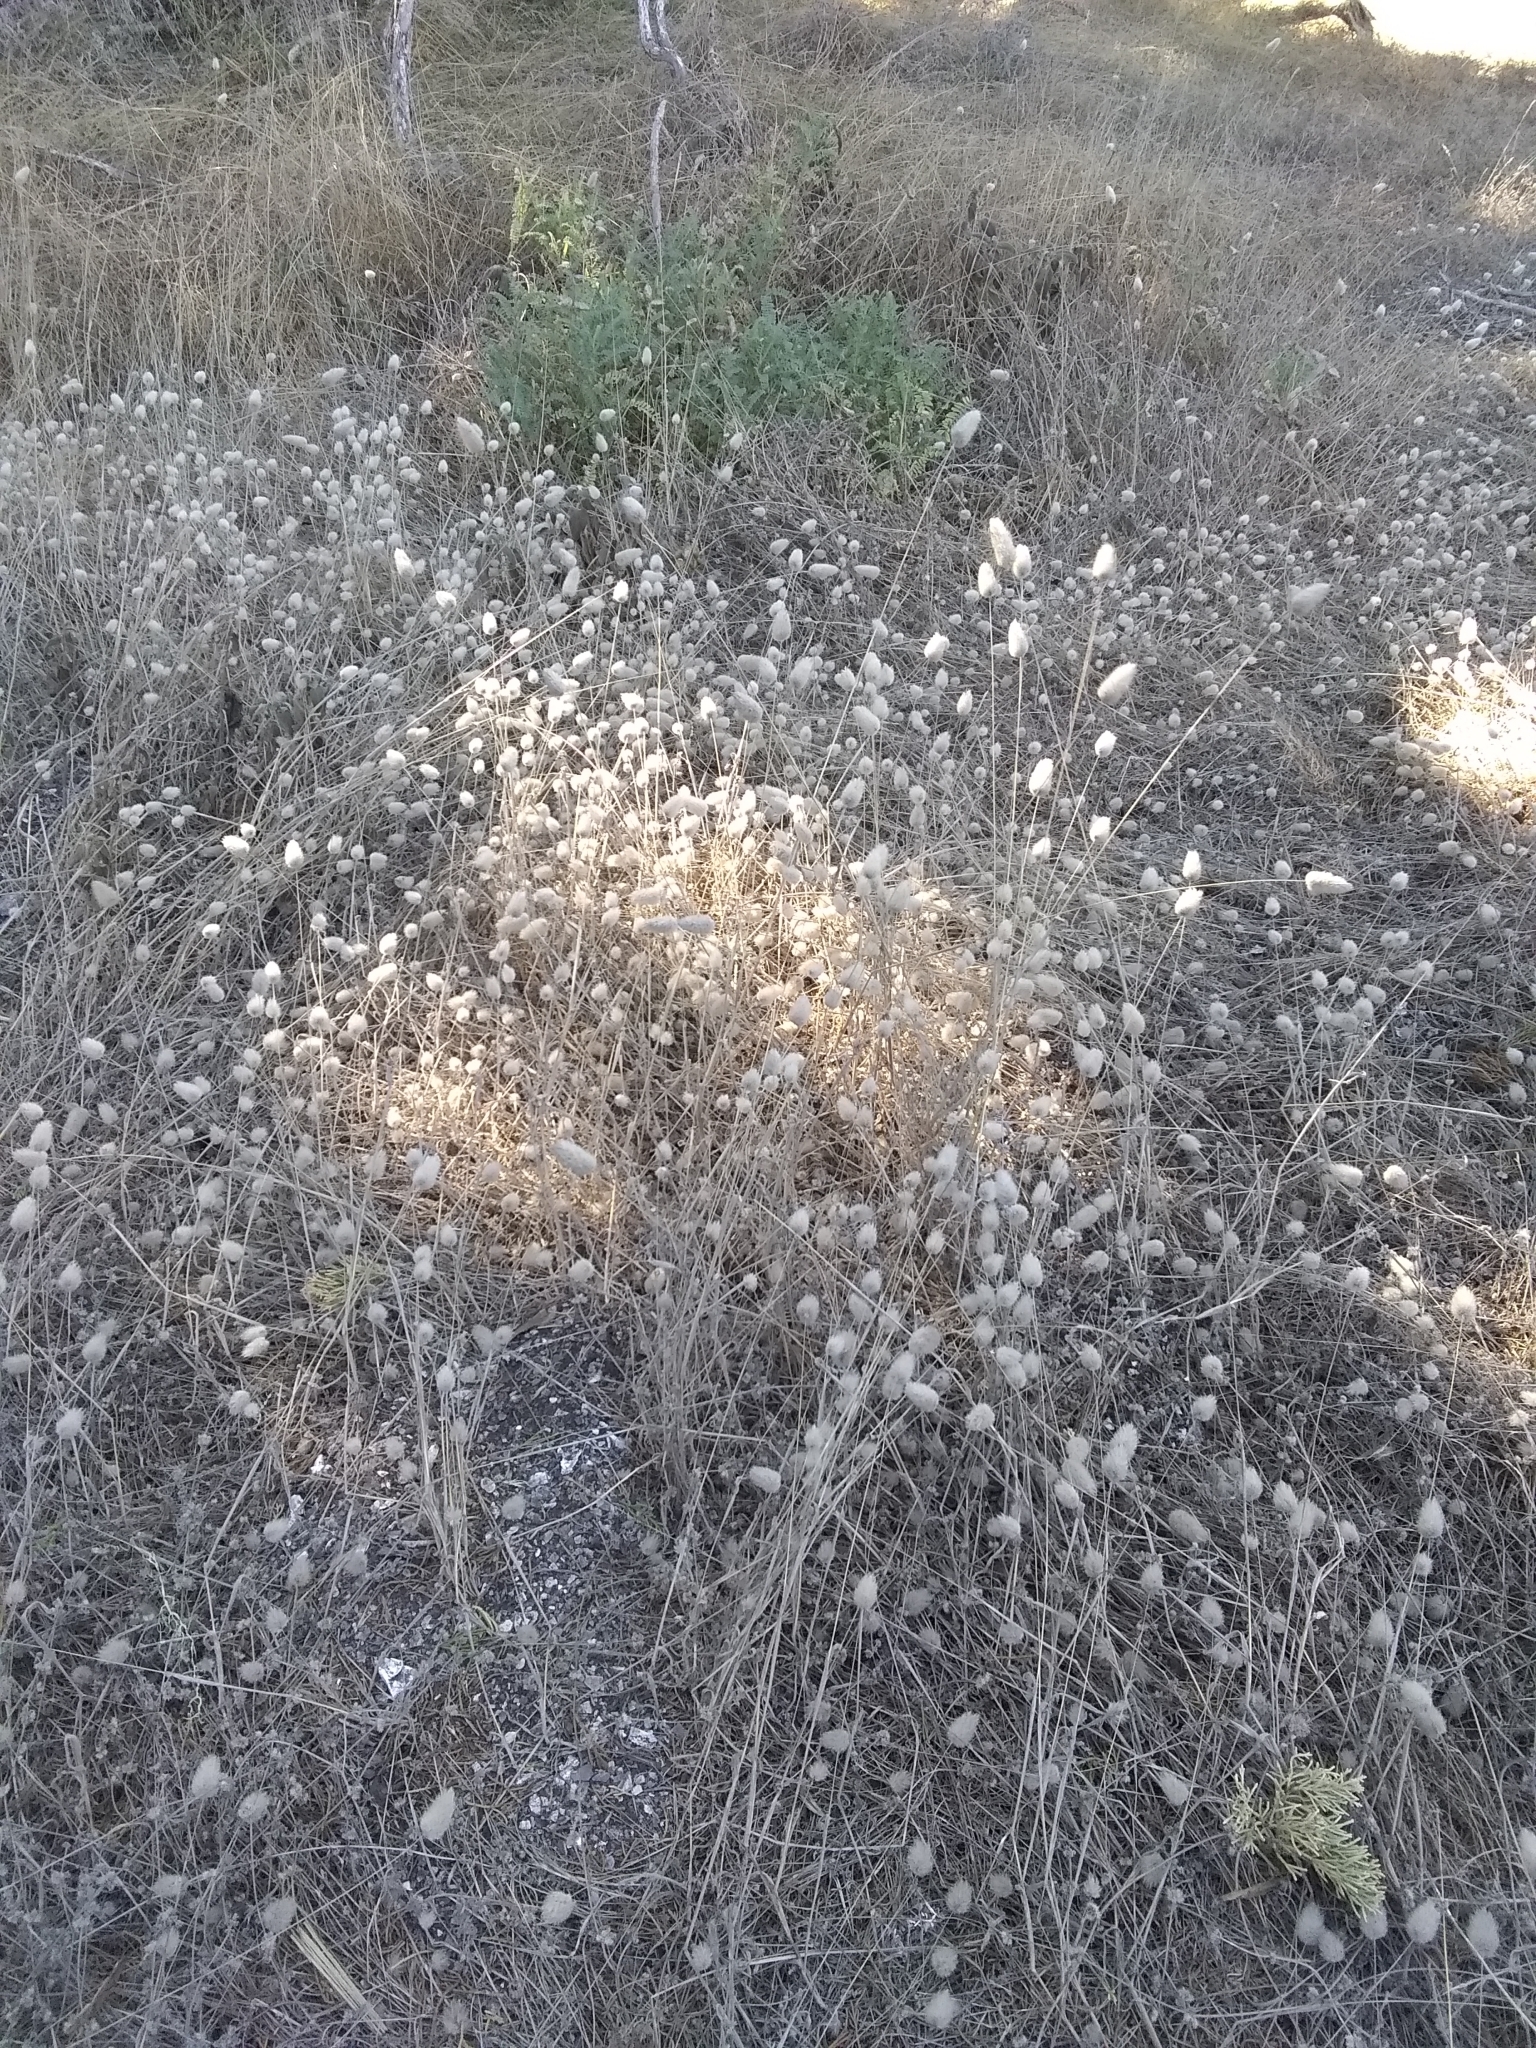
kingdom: Plantae
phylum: Tracheophyta
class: Liliopsida
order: Poales
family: Poaceae
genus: Lagurus
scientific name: Lagurus ovatus
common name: Hare's-tail
